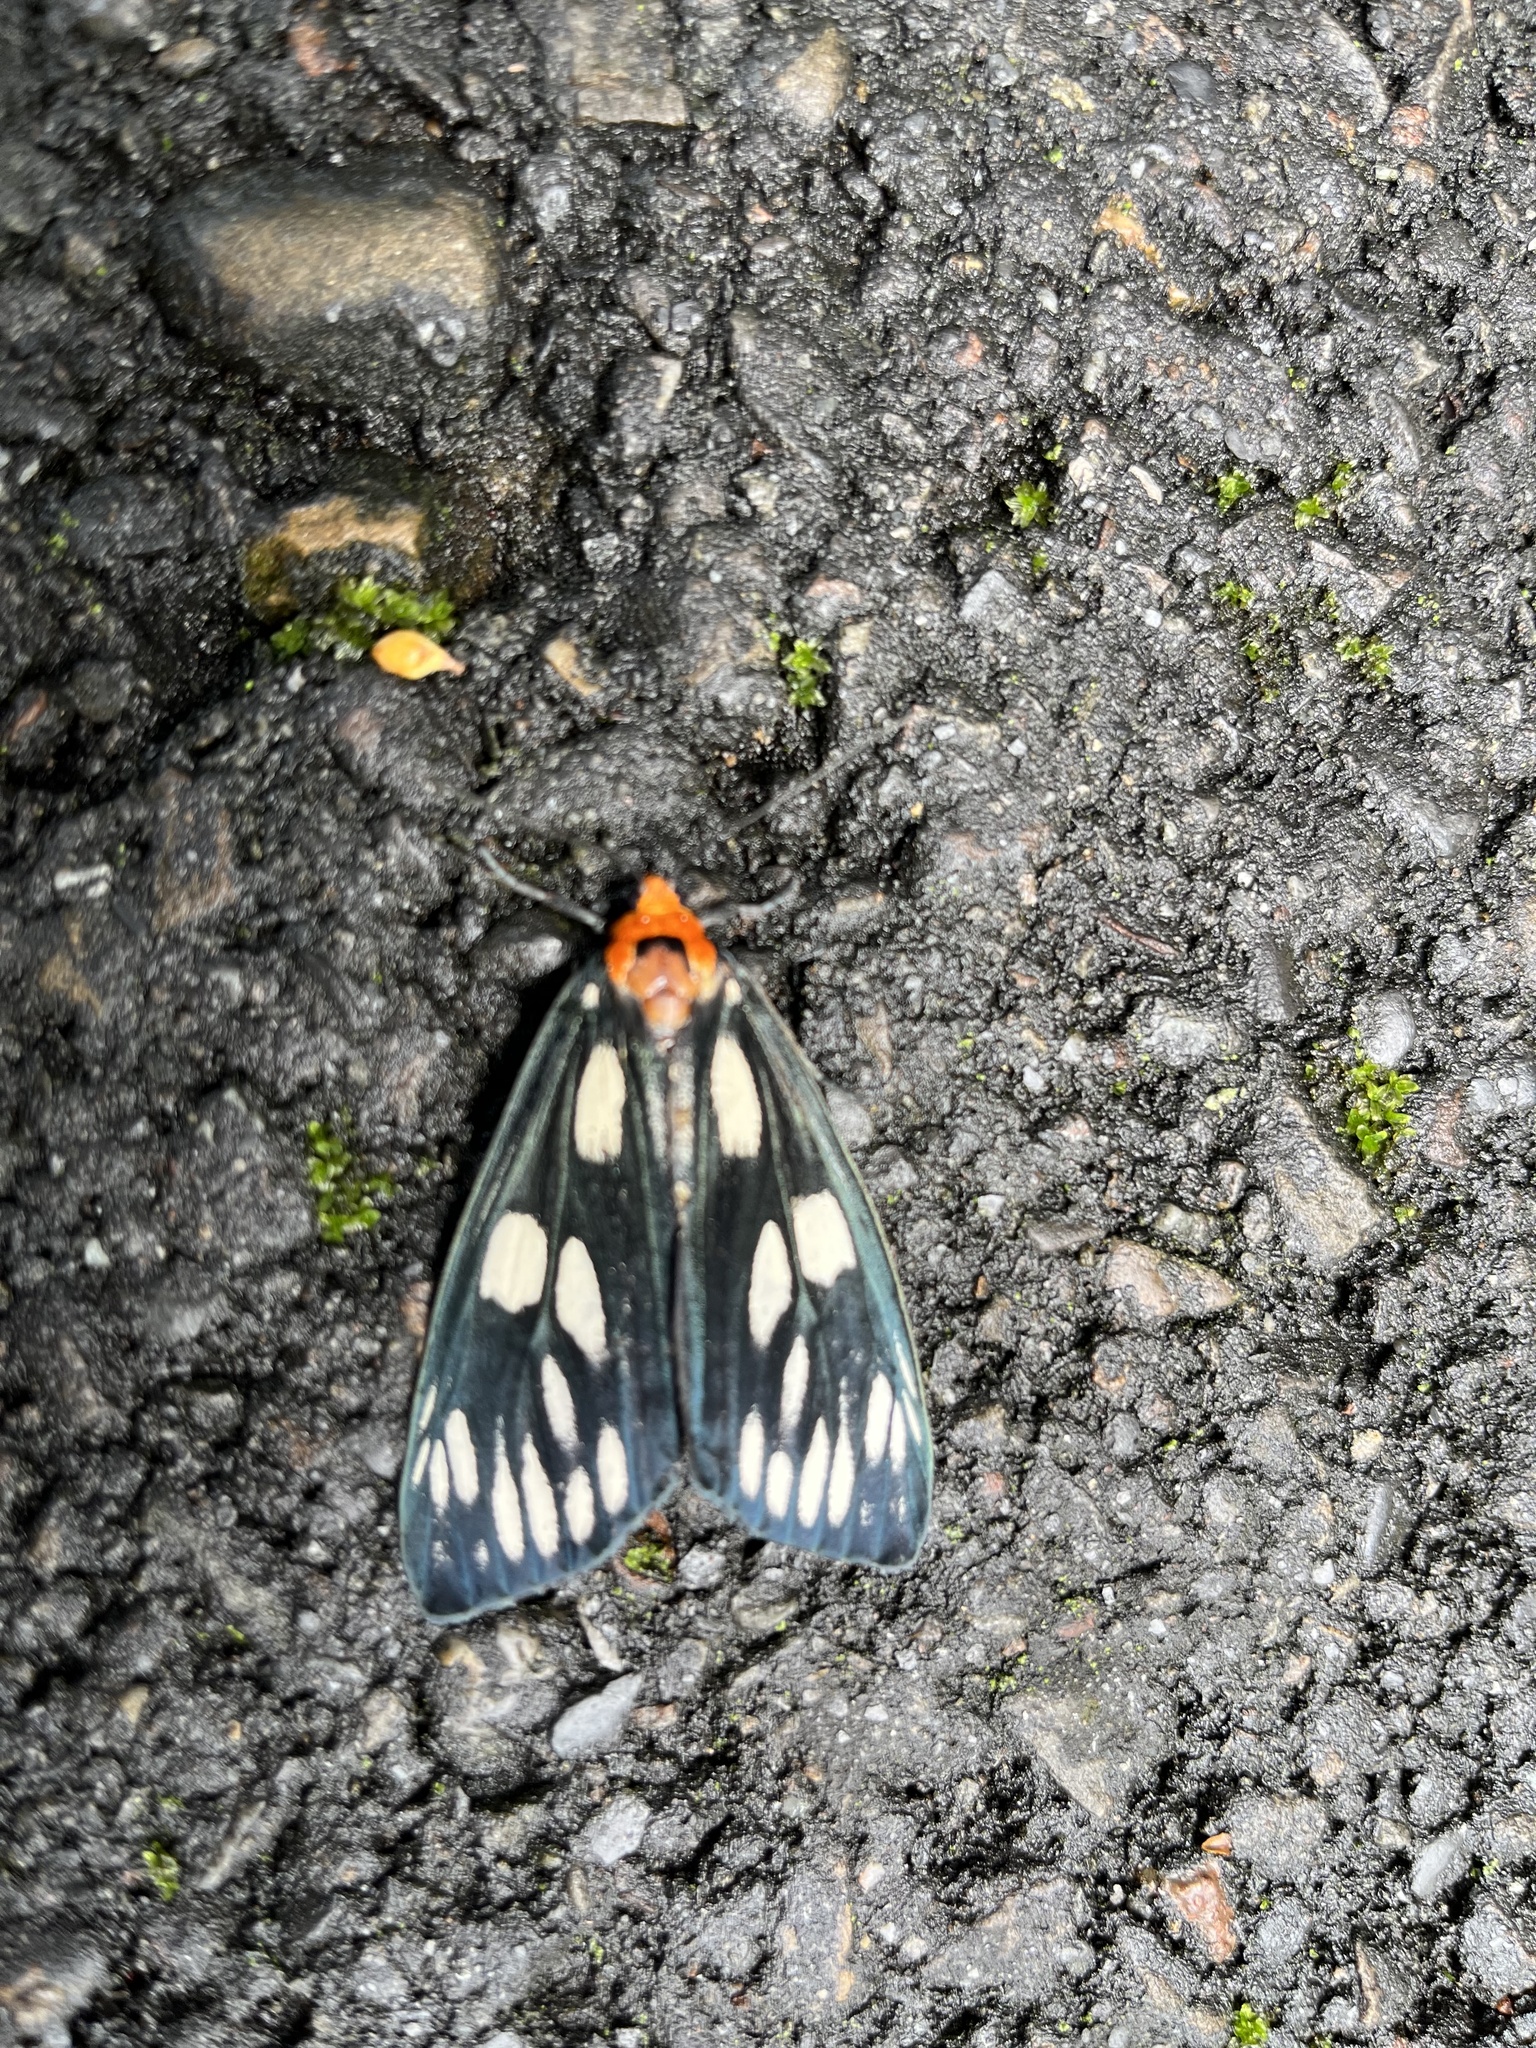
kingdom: Animalia
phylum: Arthropoda
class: Insecta
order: Lepidoptera
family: Erebidae
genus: Macrobrochis
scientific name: Macrobrochis gigas
